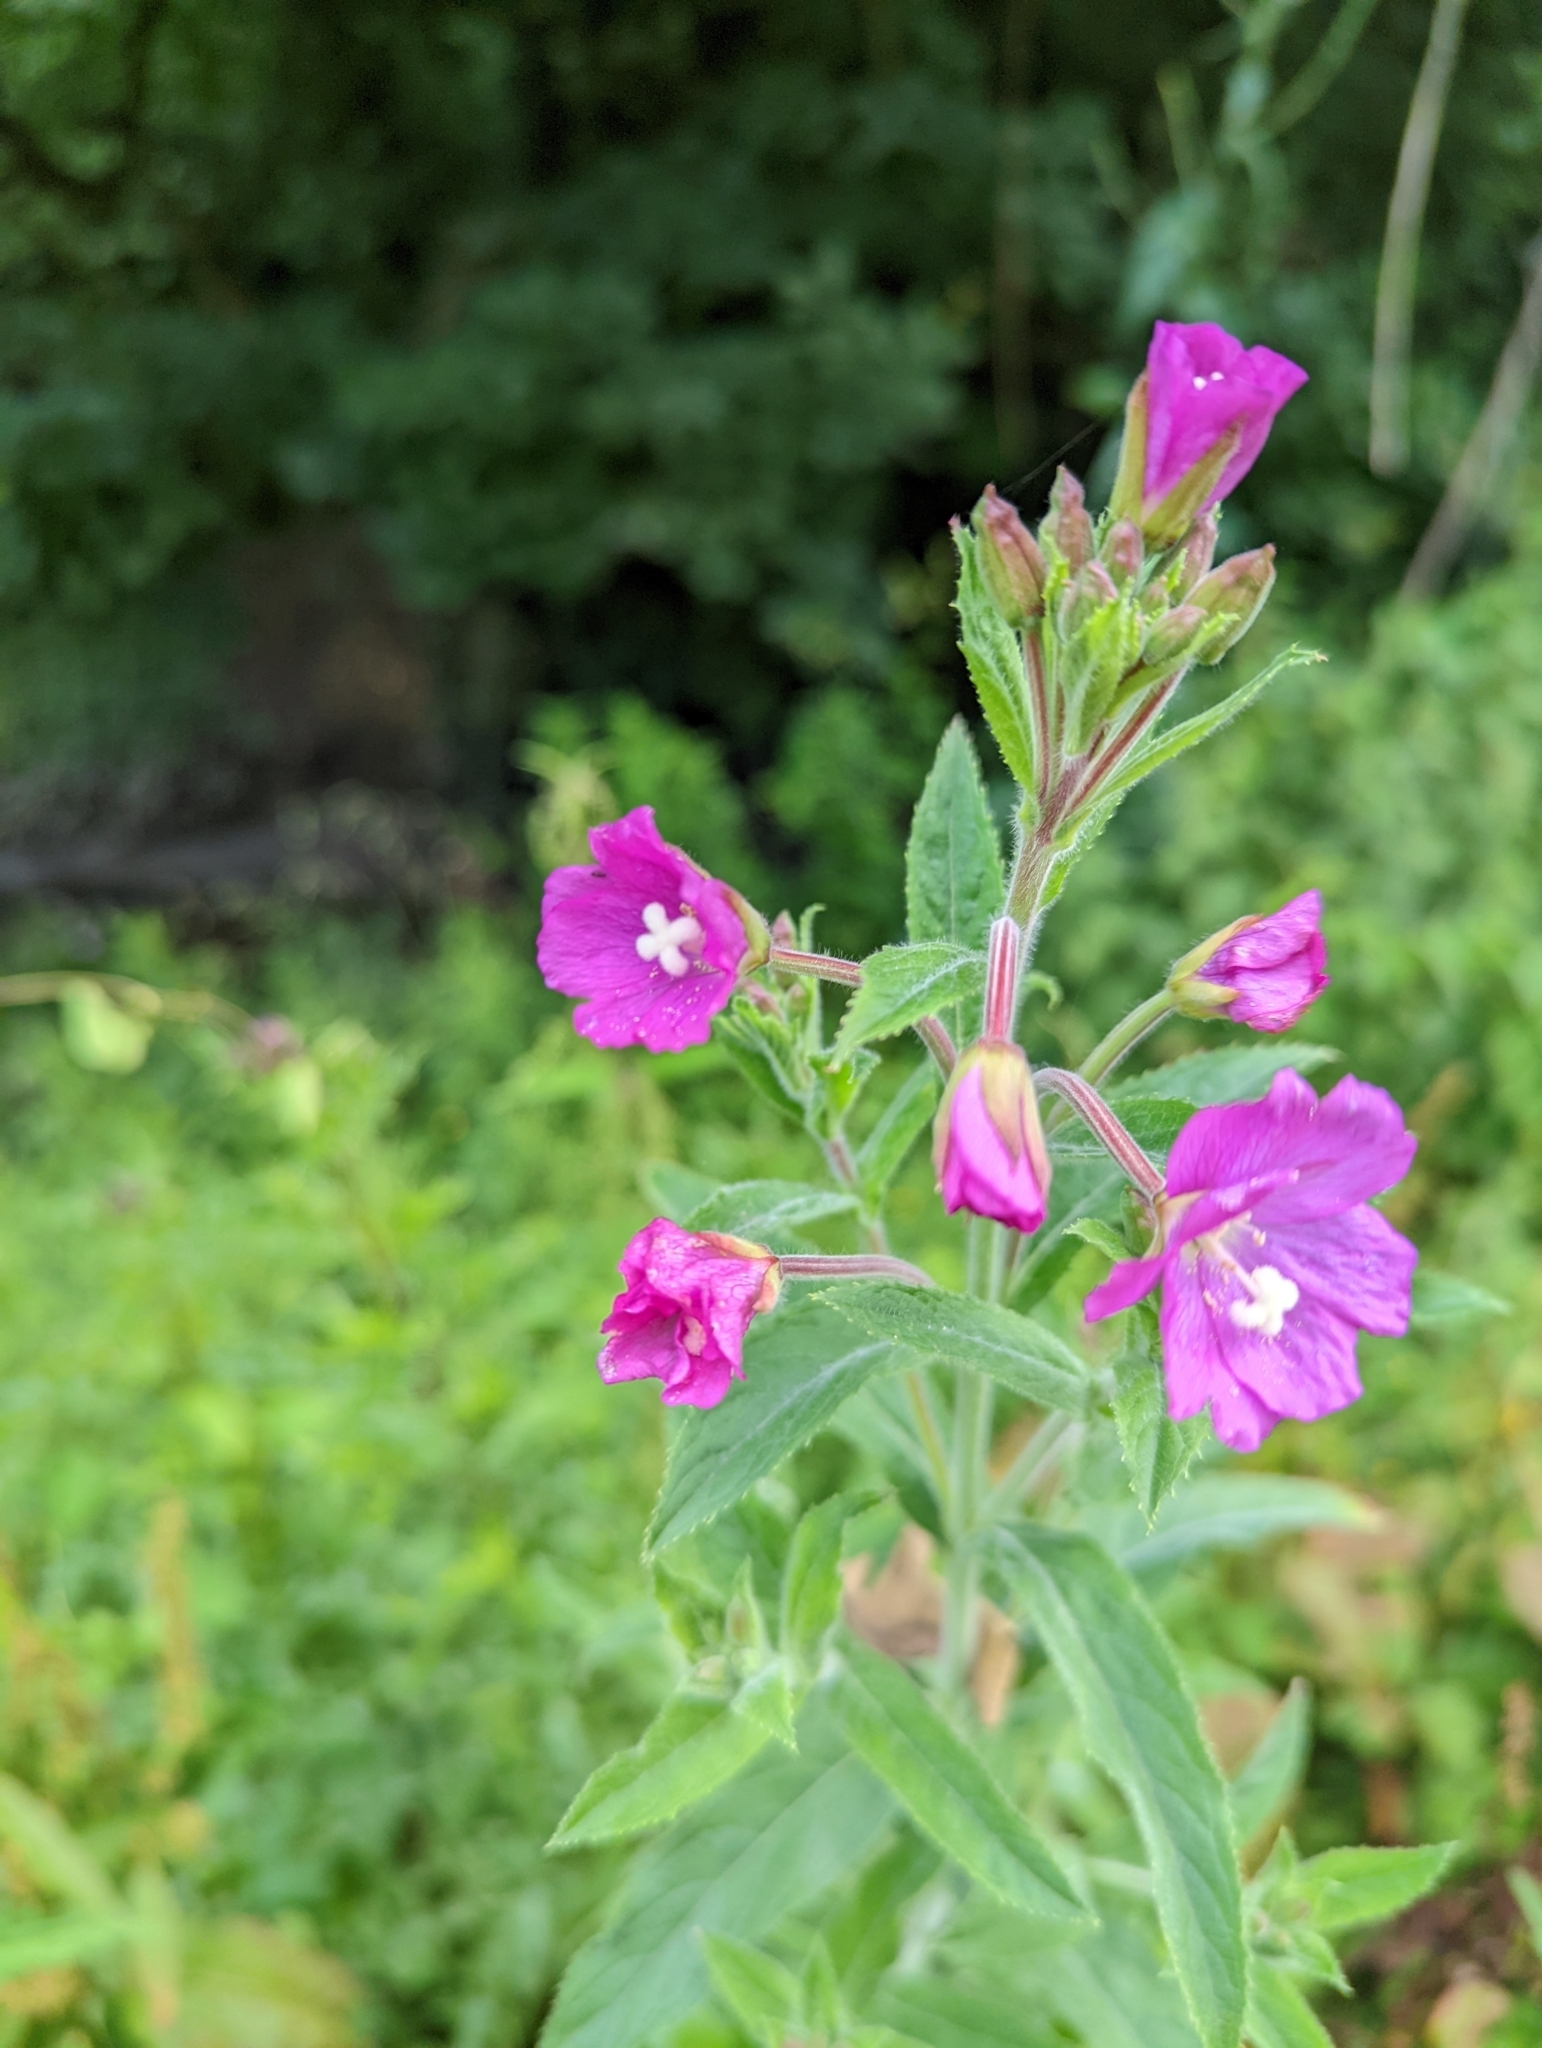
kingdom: Plantae
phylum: Tracheophyta
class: Magnoliopsida
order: Myrtales
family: Onagraceae
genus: Epilobium
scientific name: Epilobium hirsutum
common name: Great willowherb
